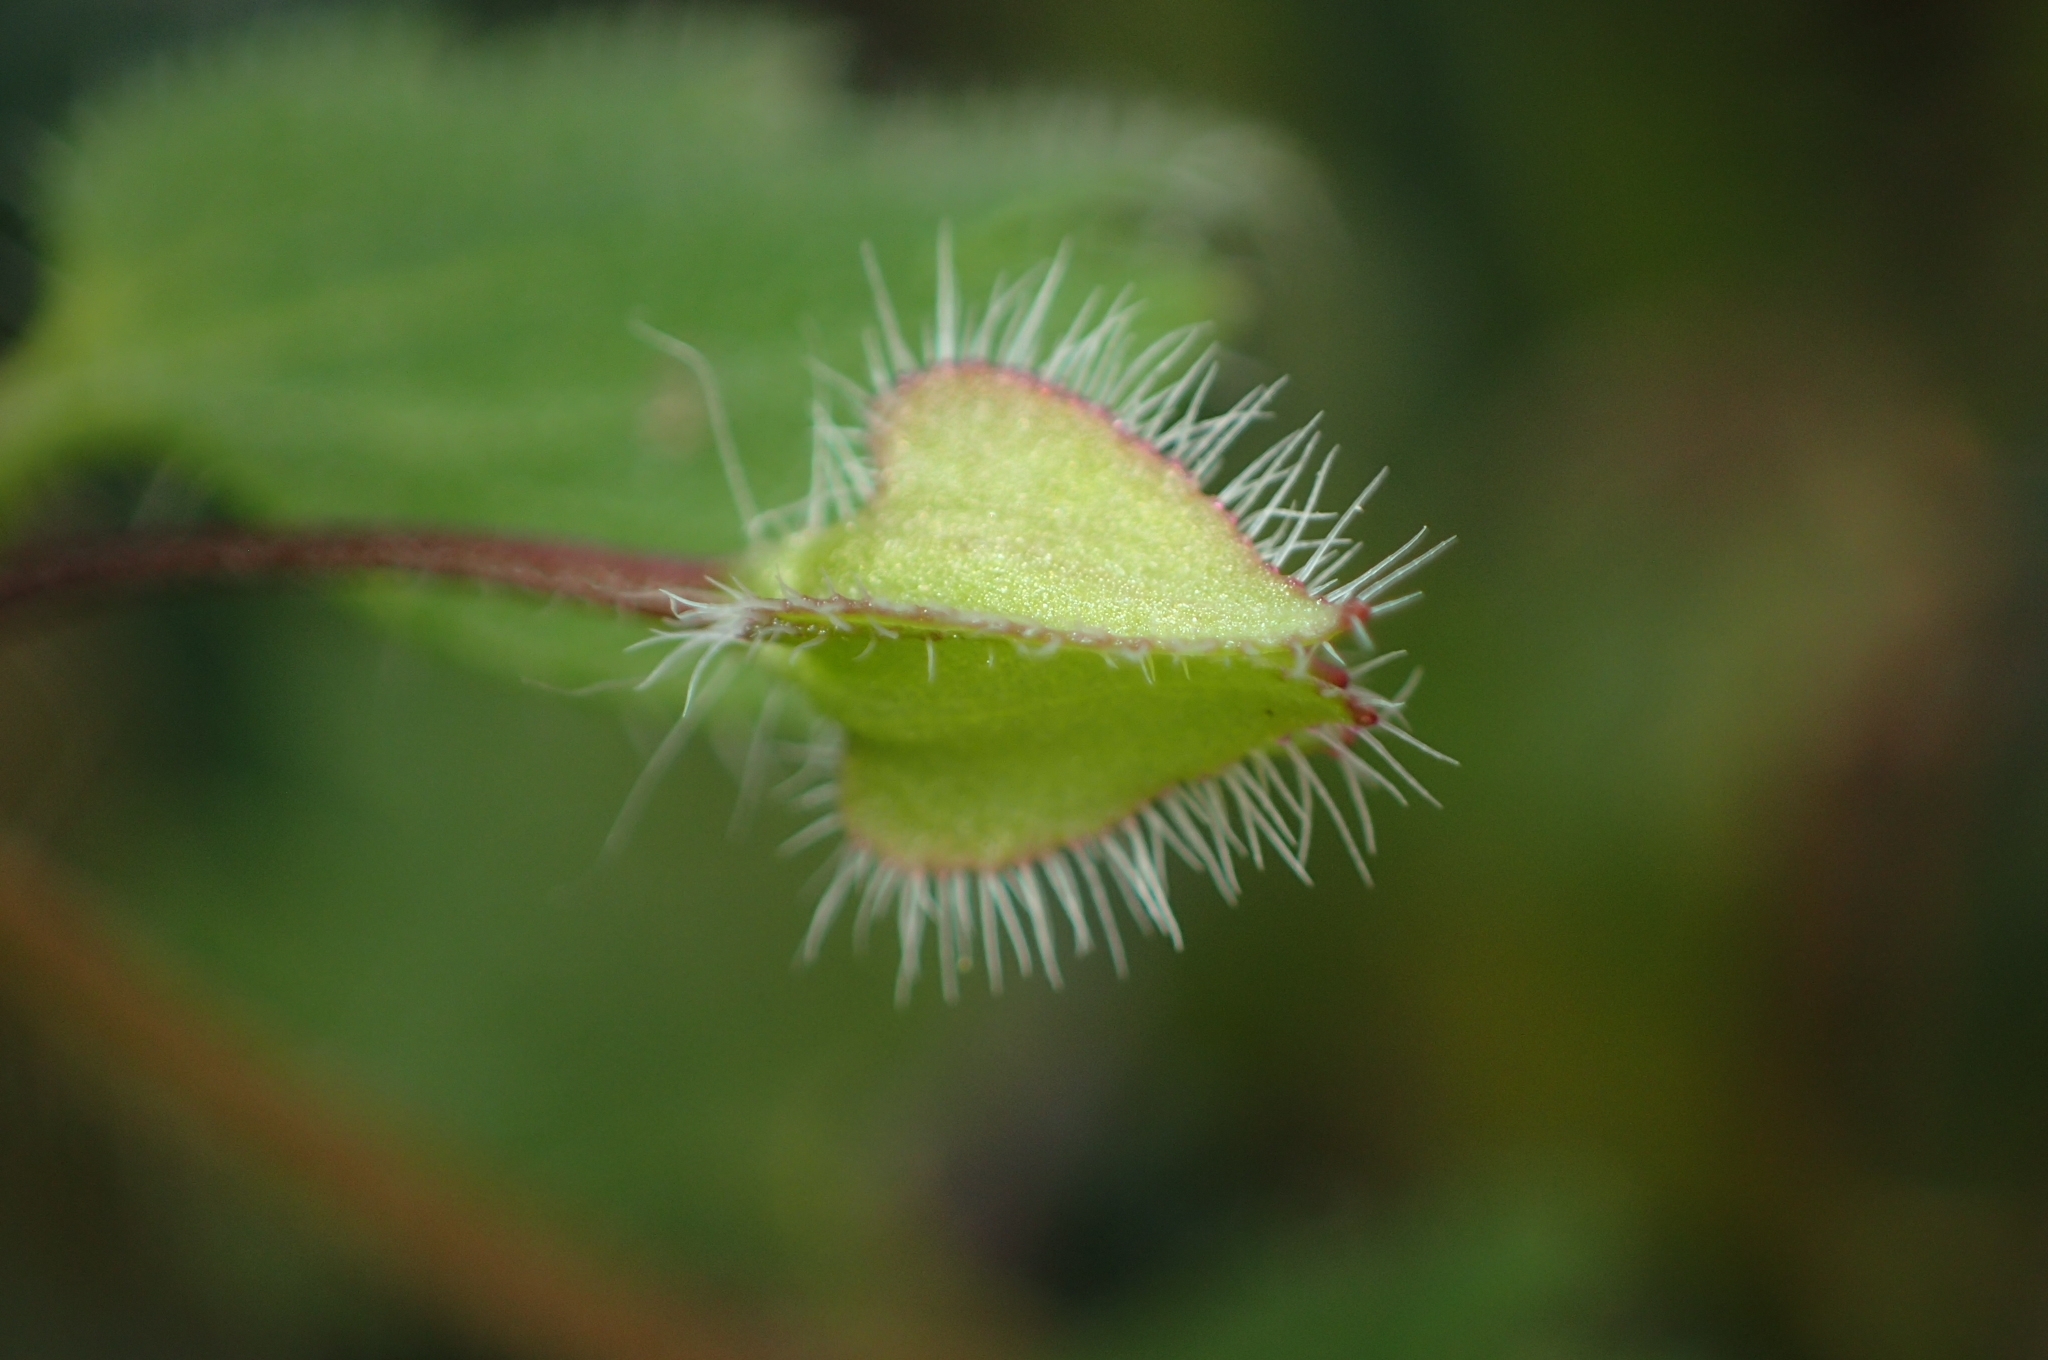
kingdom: Plantae
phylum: Tracheophyta
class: Magnoliopsida
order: Lamiales
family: Plantaginaceae
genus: Veronica
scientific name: Veronica hederifolia
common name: Ivy-leaved speedwell
